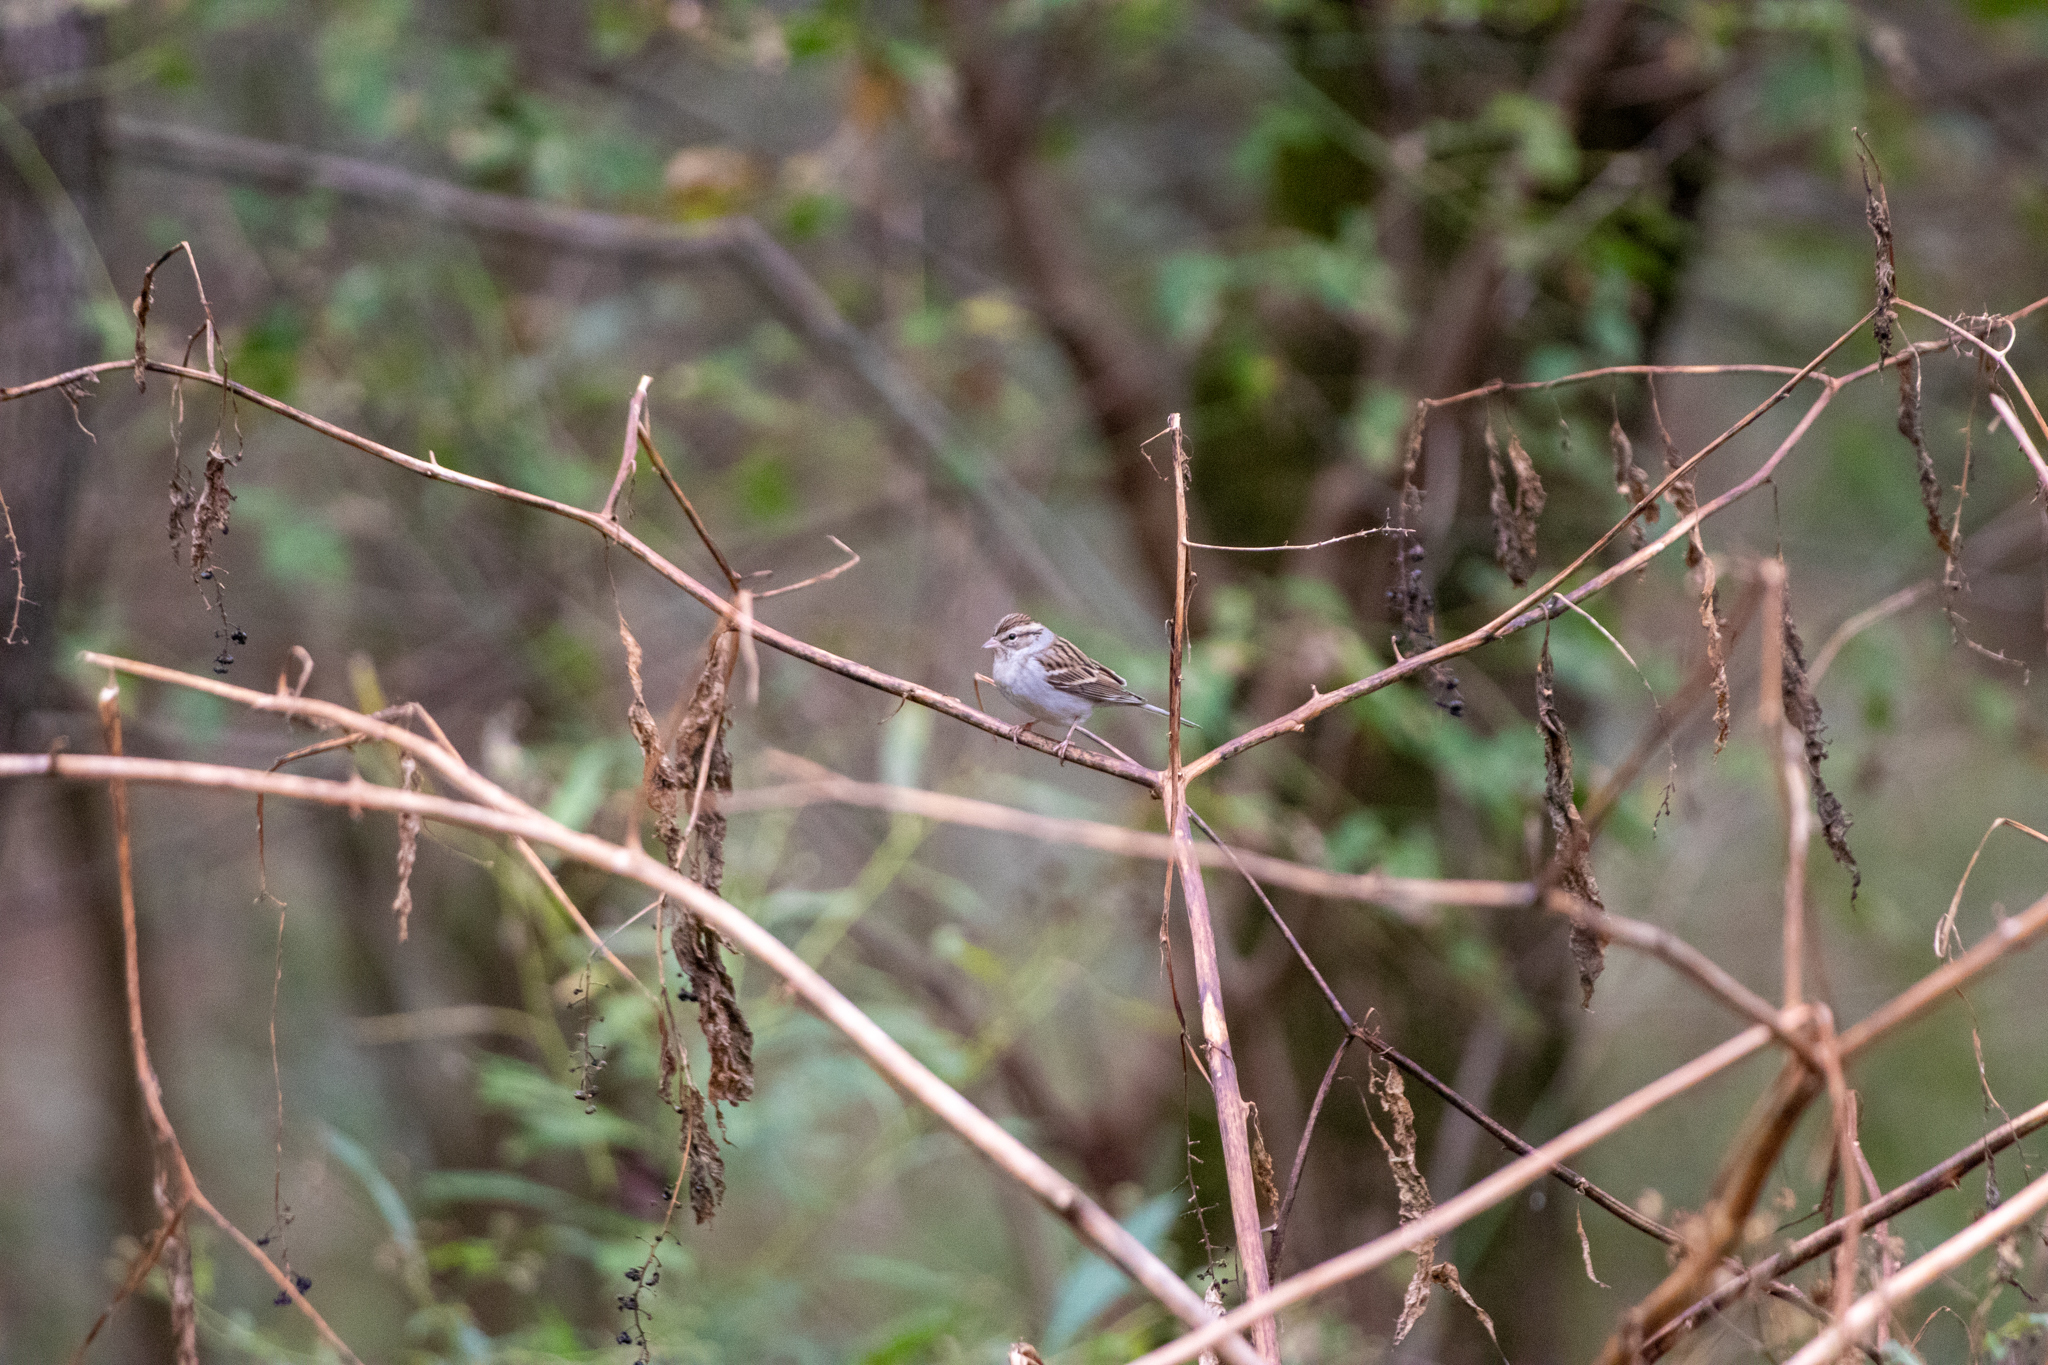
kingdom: Animalia
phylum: Chordata
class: Aves
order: Passeriformes
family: Passerellidae
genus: Spizella
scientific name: Spizella passerina
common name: Chipping sparrow
